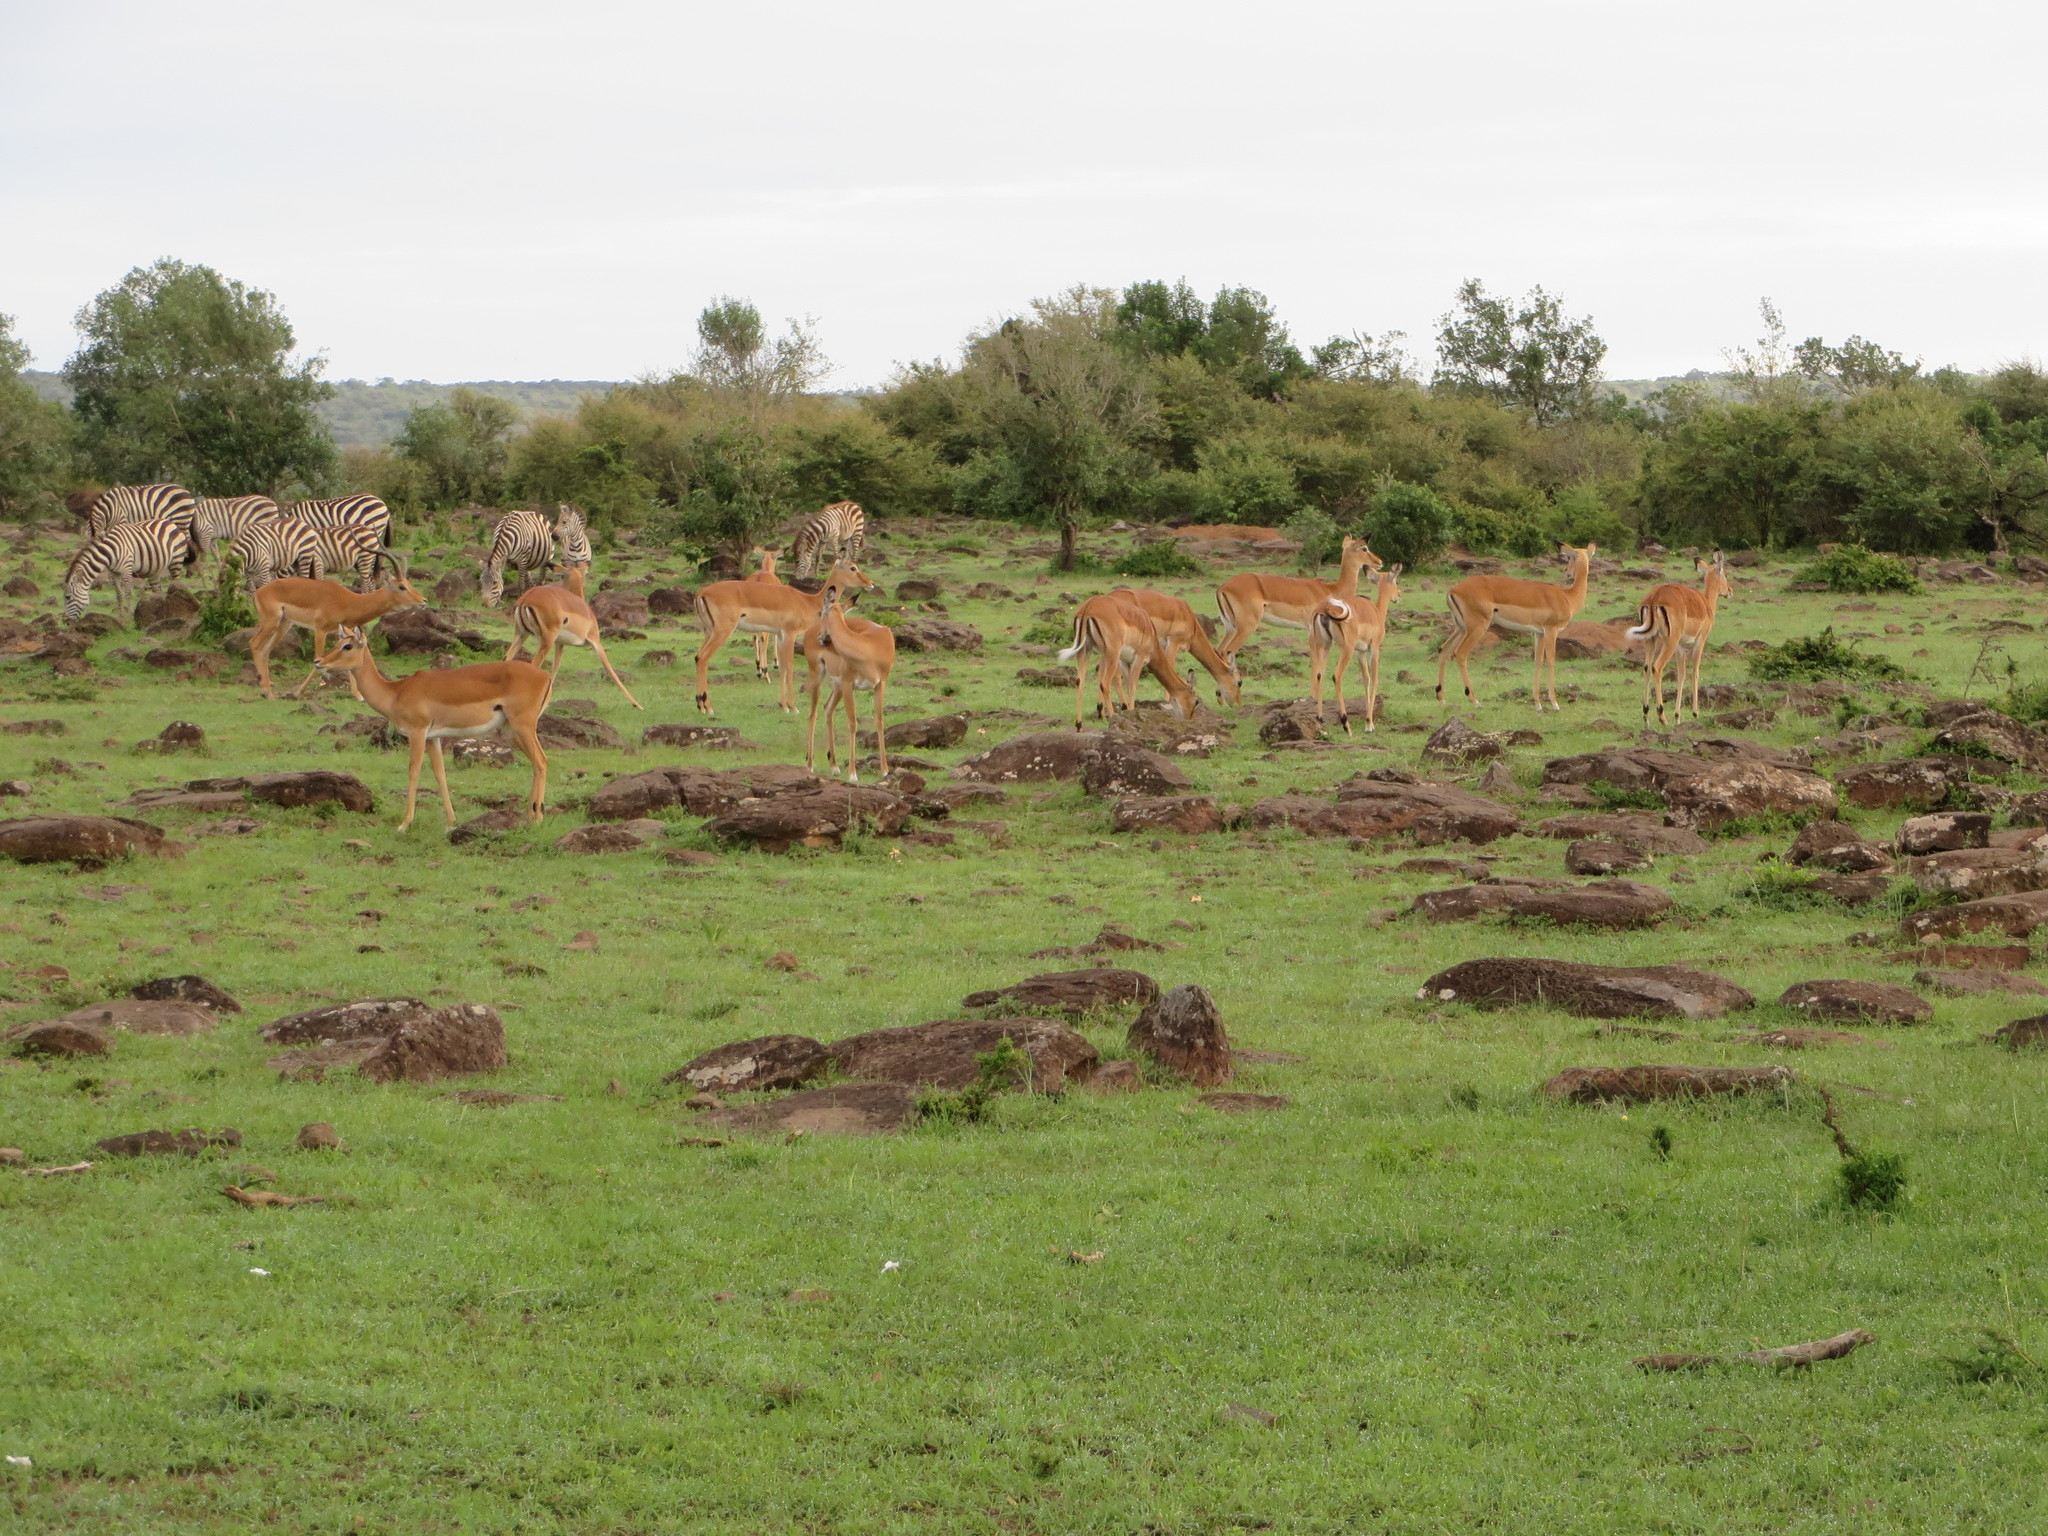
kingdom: Animalia
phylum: Chordata
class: Mammalia
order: Artiodactyla
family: Bovidae
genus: Aepyceros
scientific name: Aepyceros melampus
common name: Impala
